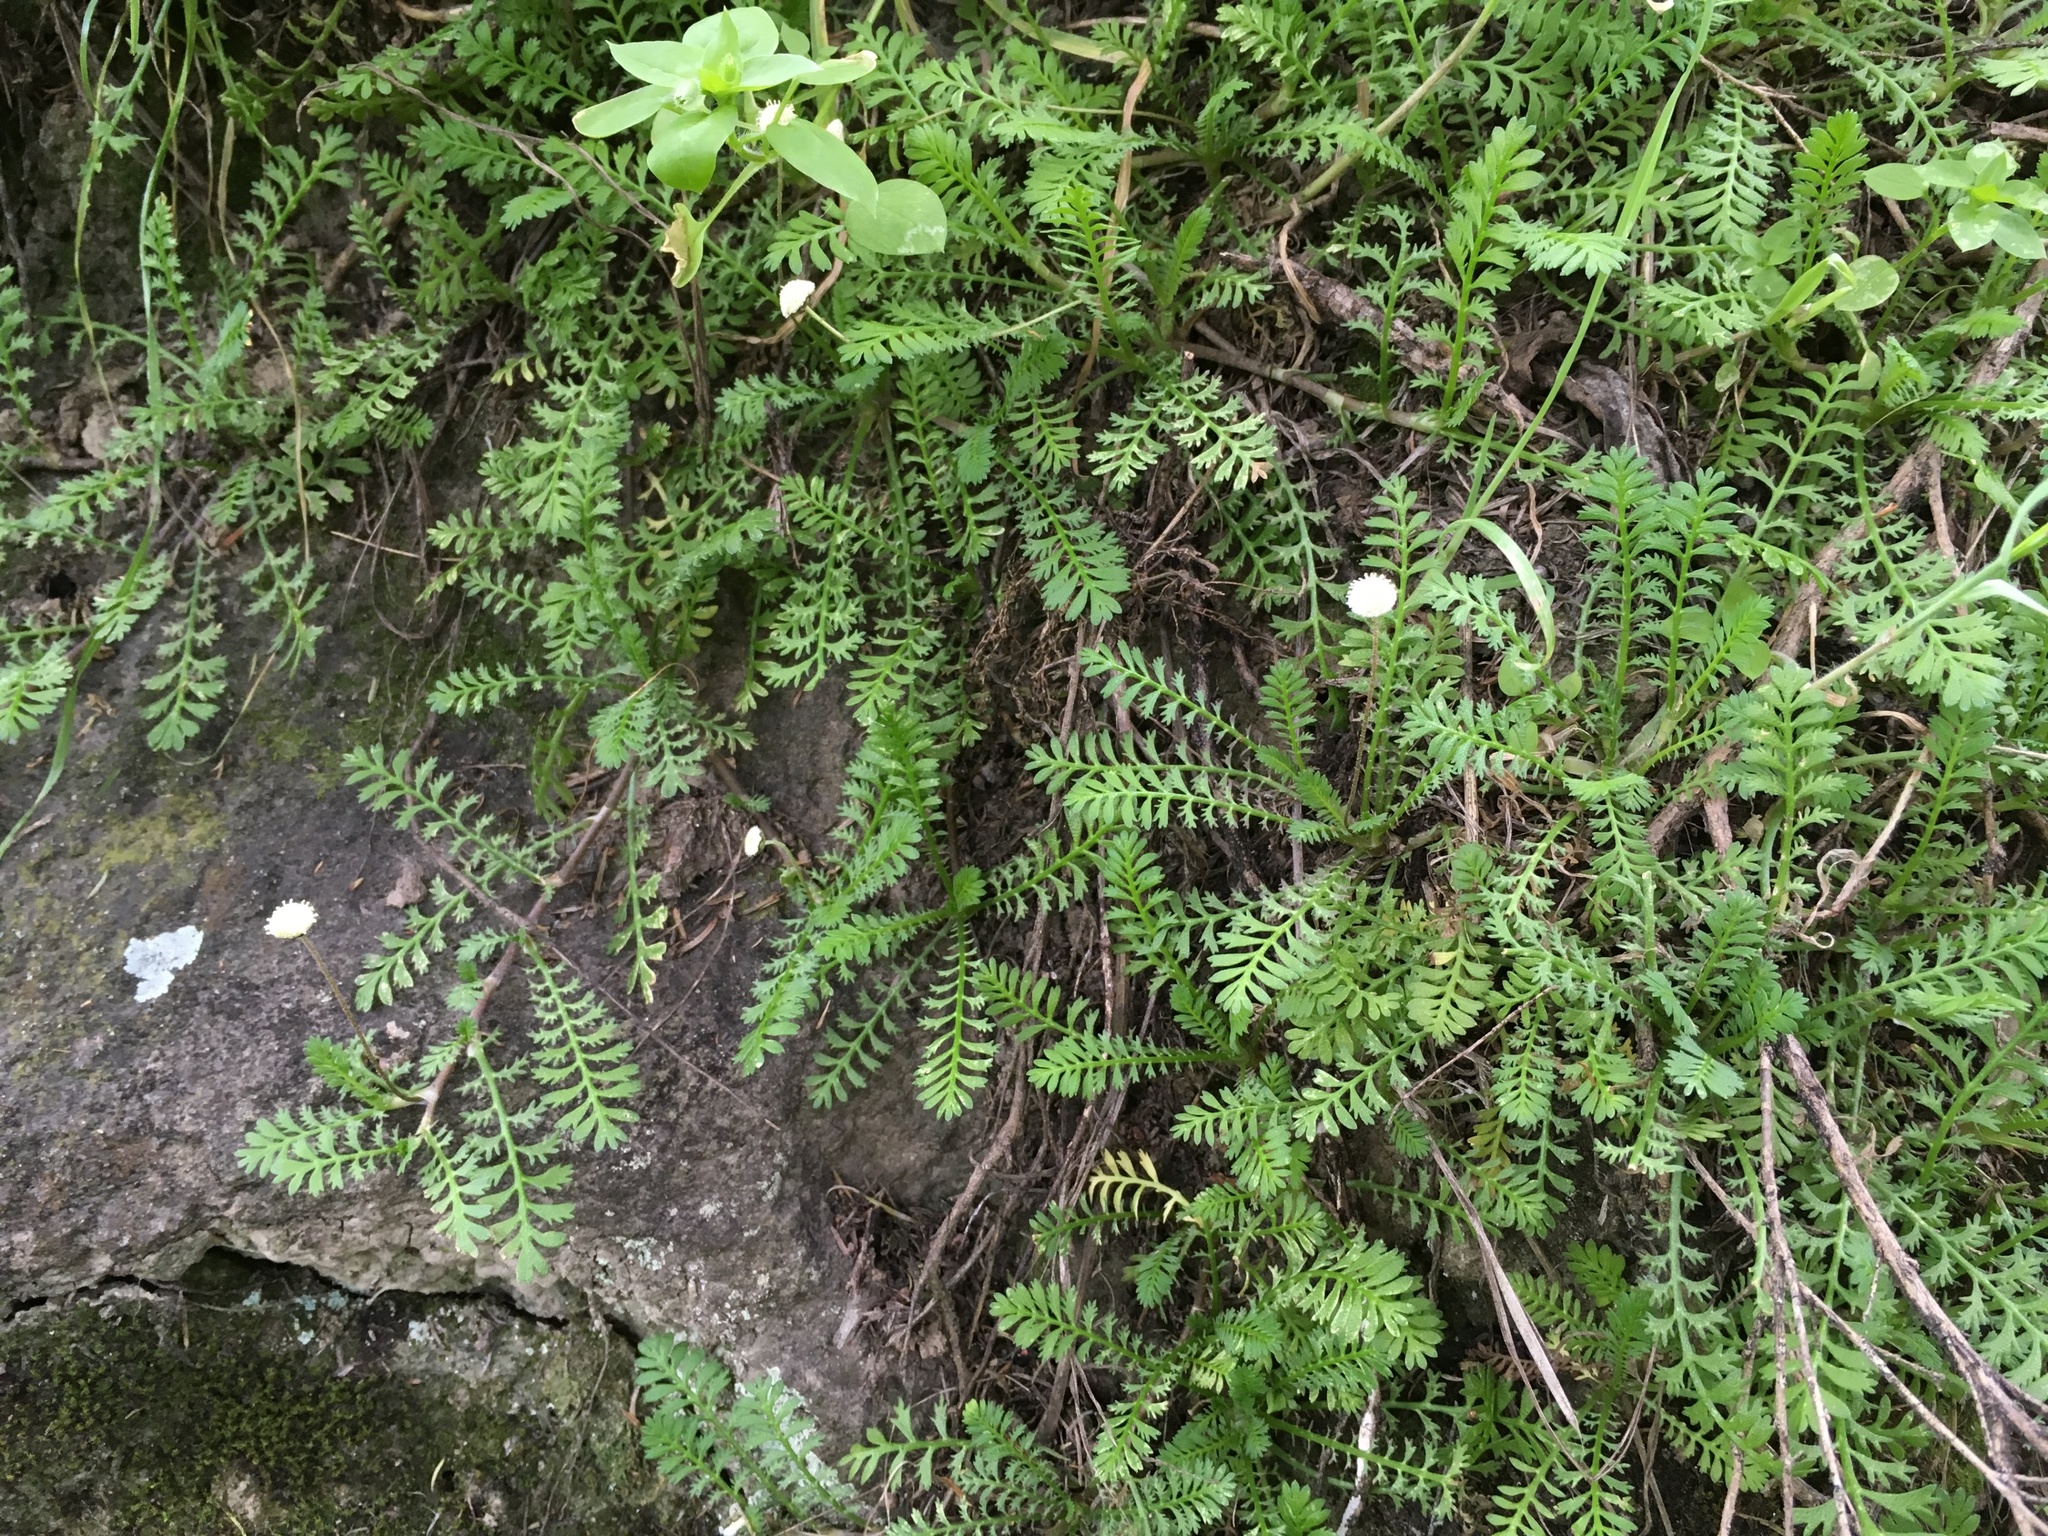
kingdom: Plantae
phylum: Tracheophyta
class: Magnoliopsida
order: Asterales
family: Asteraceae
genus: Leptinella
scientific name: Leptinella minor
